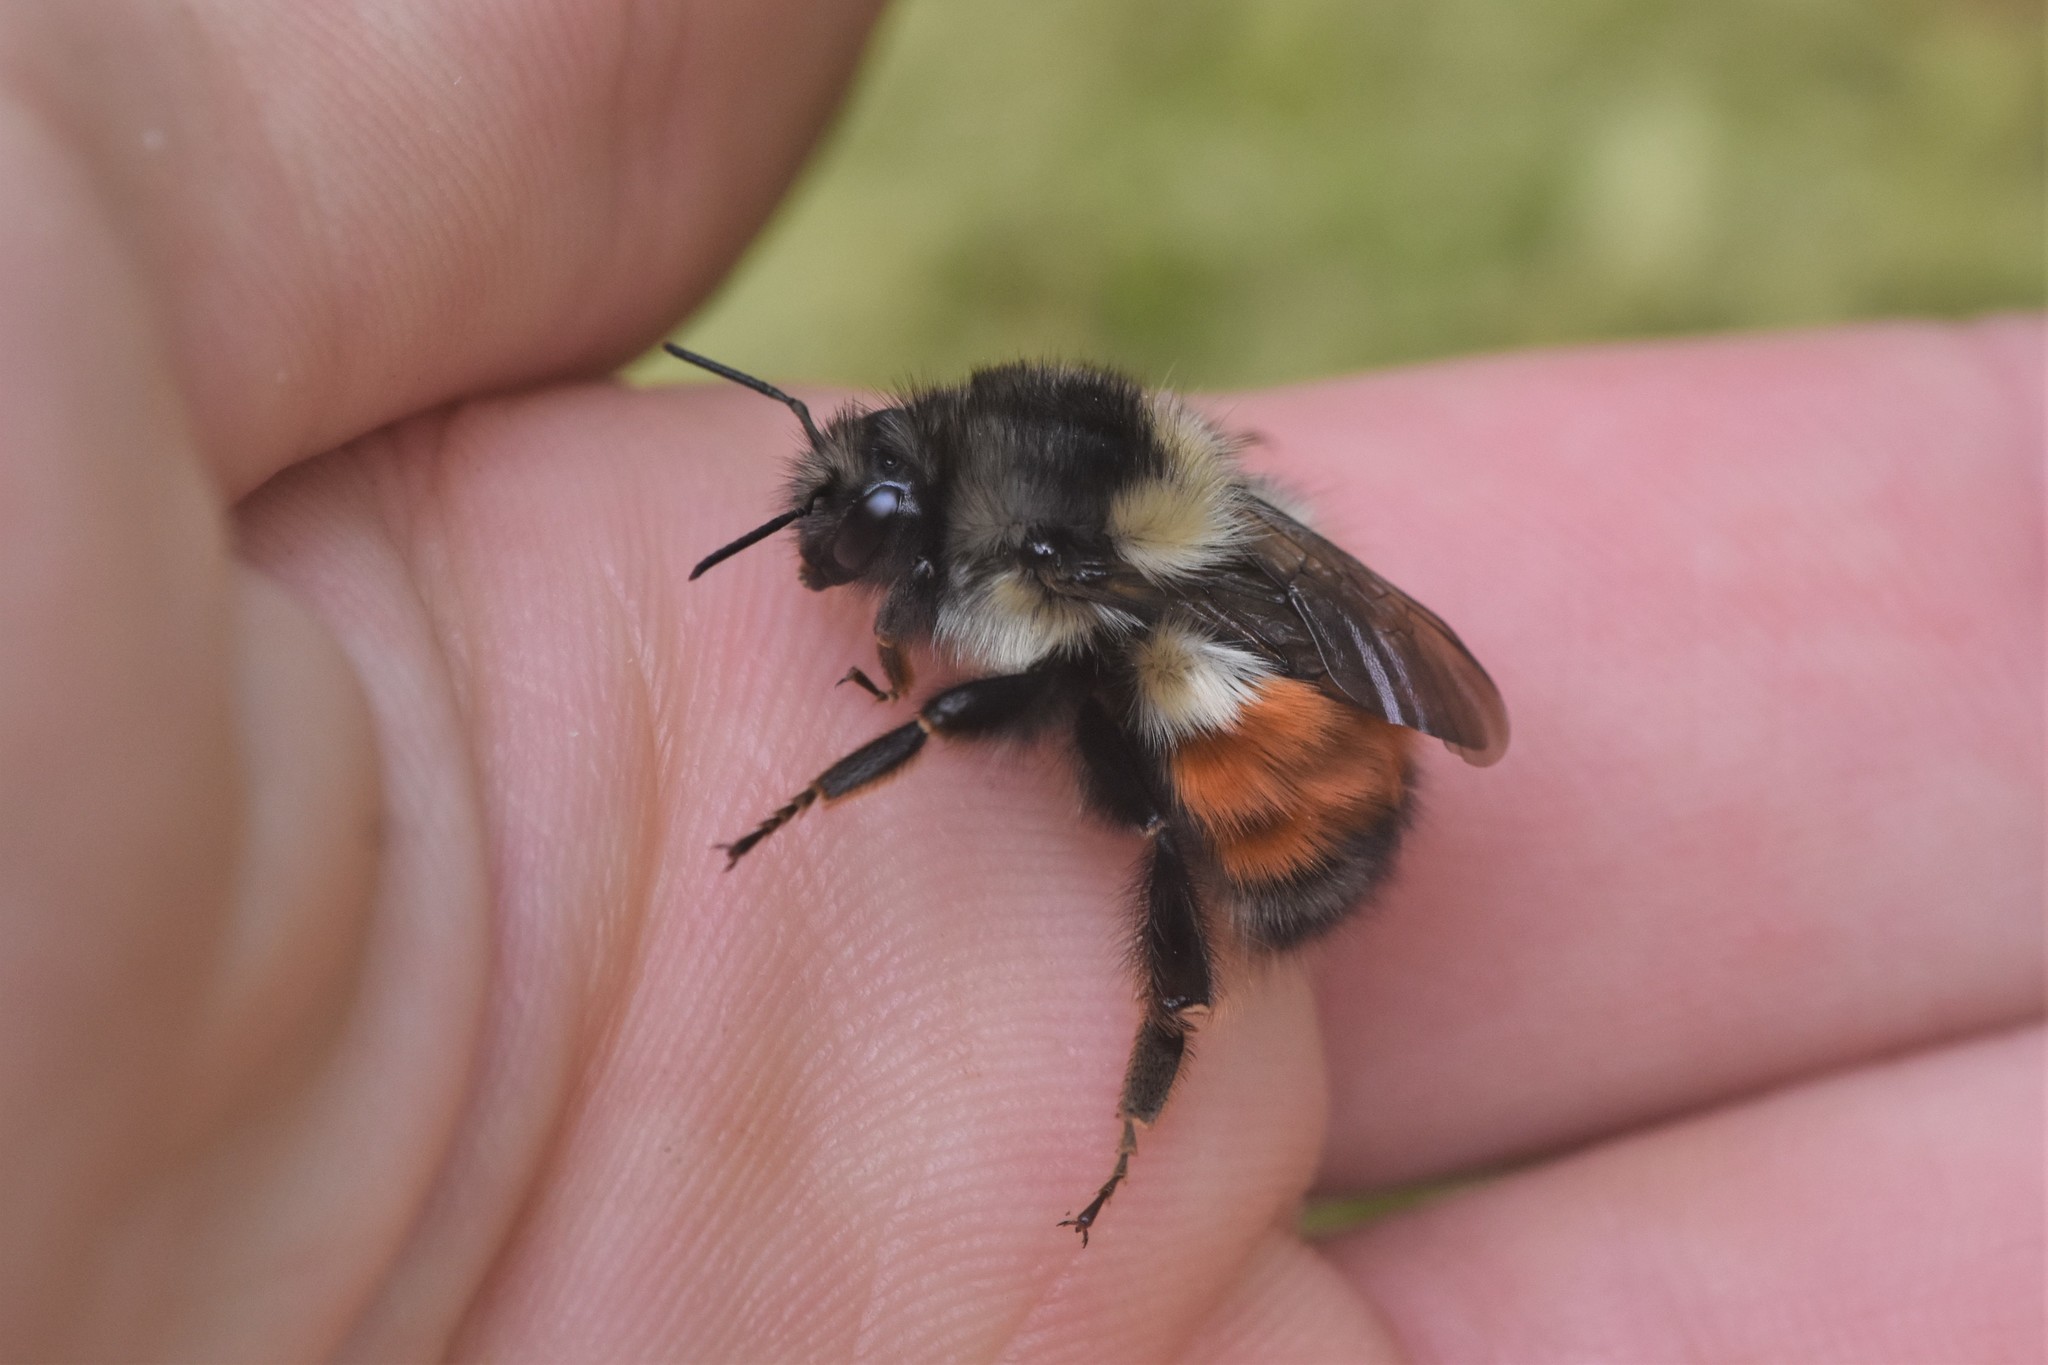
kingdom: Animalia
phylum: Arthropoda
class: Insecta
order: Hymenoptera
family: Apidae
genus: Bombus
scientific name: Bombus melanopygus
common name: Black tail bumble bee
